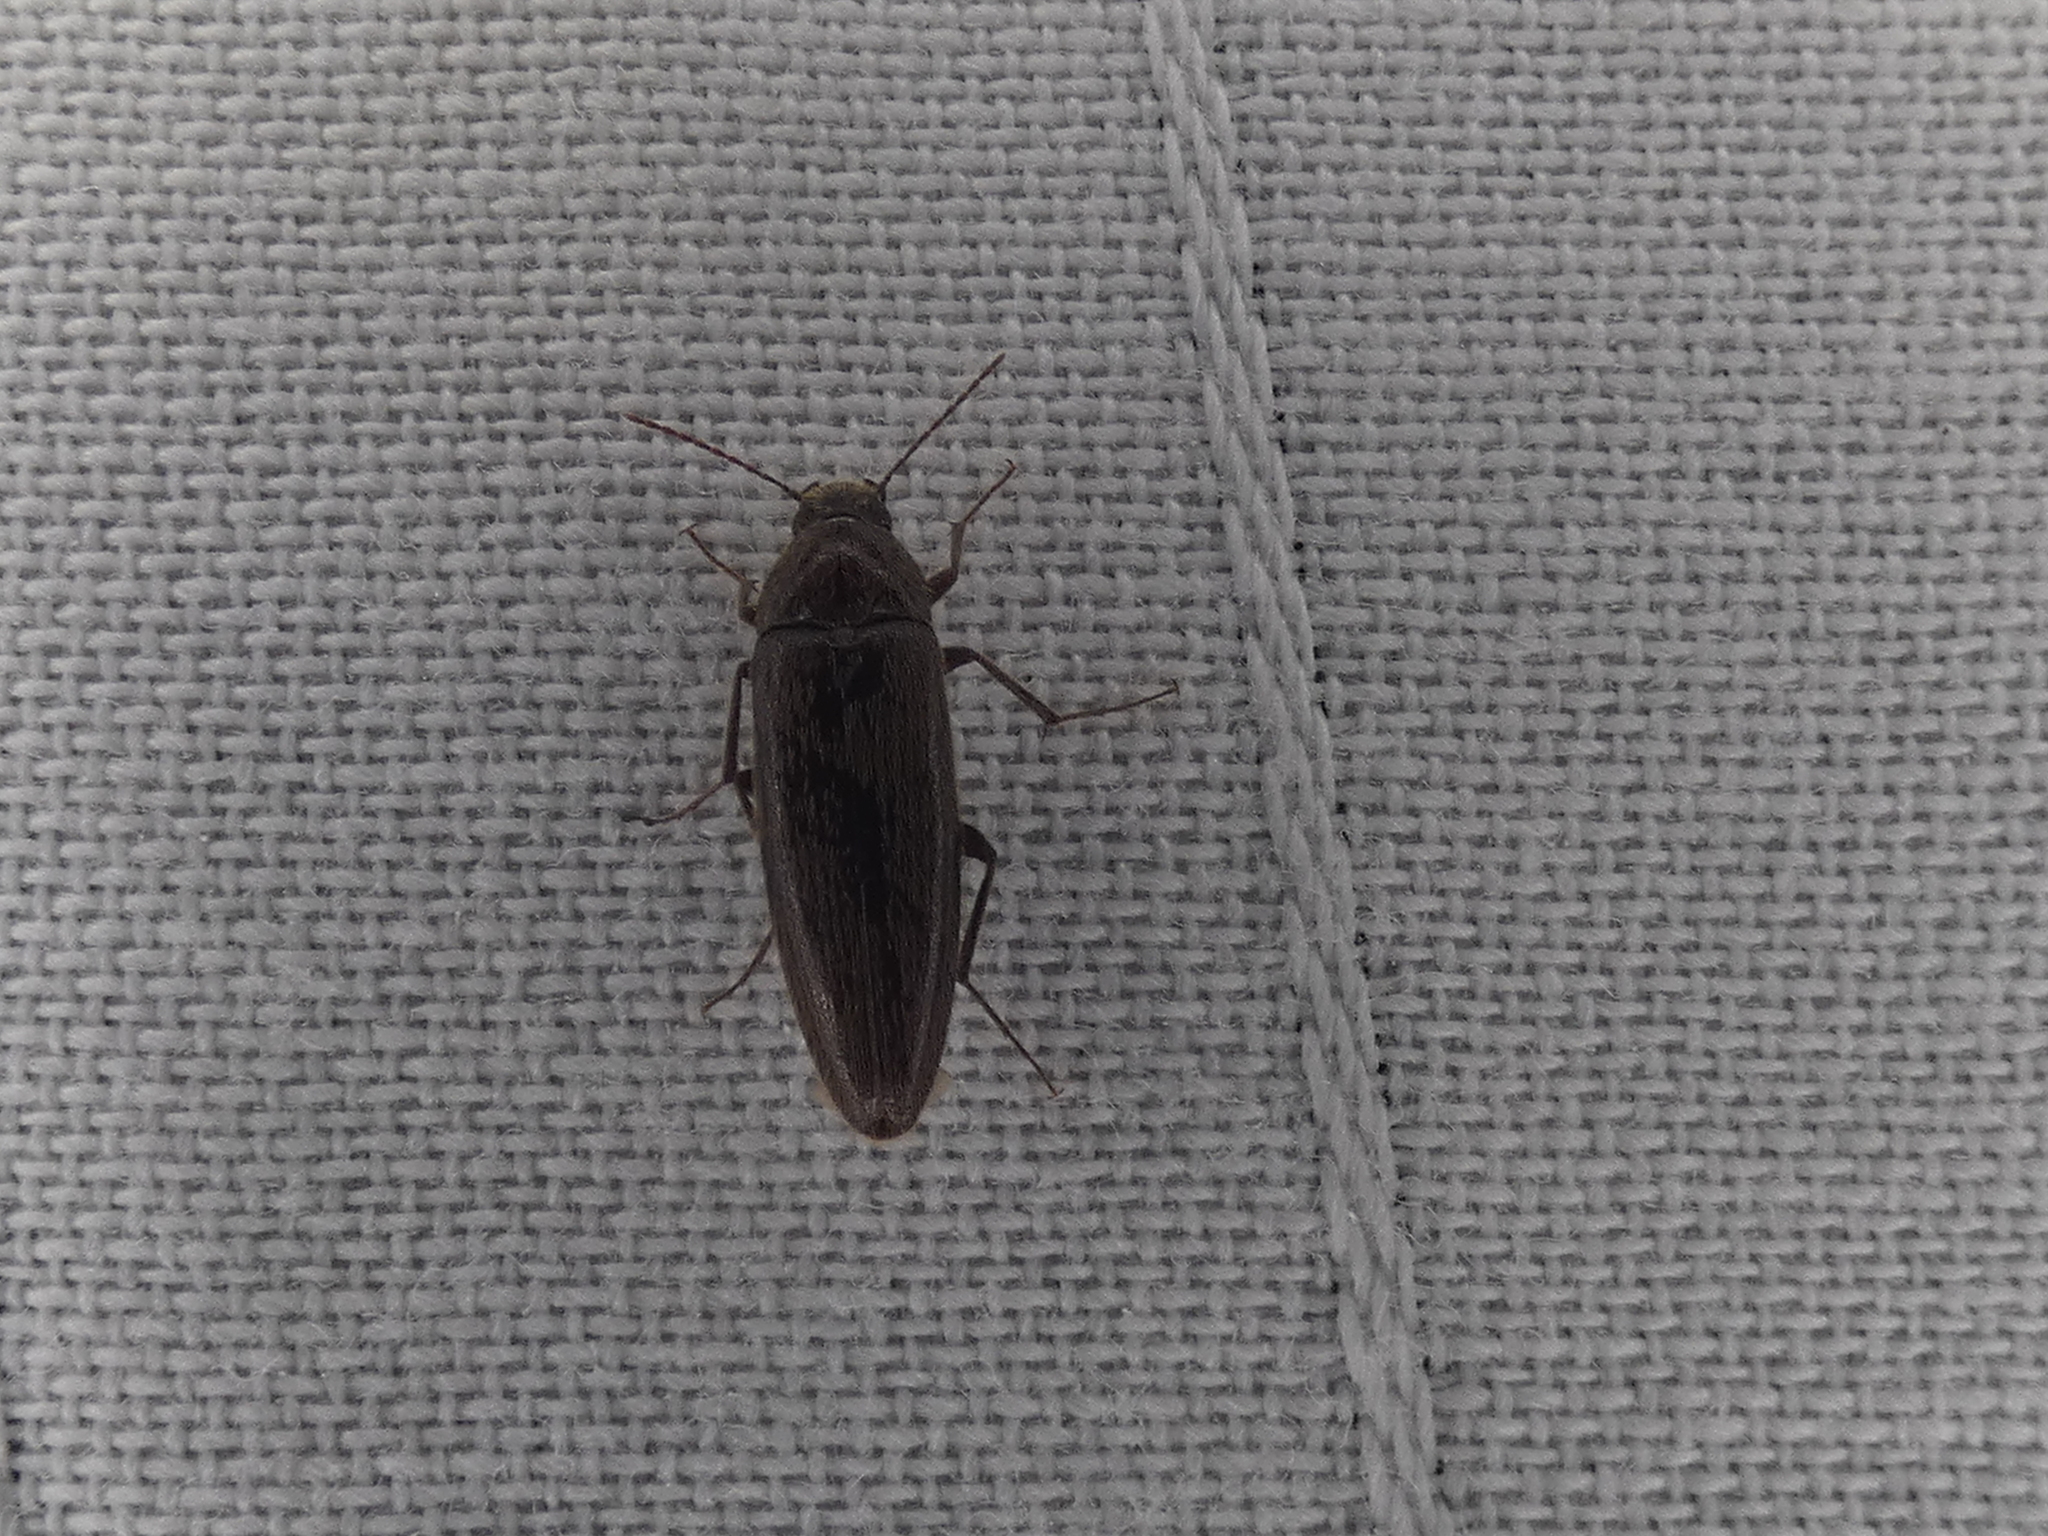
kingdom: Animalia
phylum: Arthropoda
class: Insecta
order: Coleoptera
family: Synchroidae
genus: Synchroa
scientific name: Synchroa punctata
